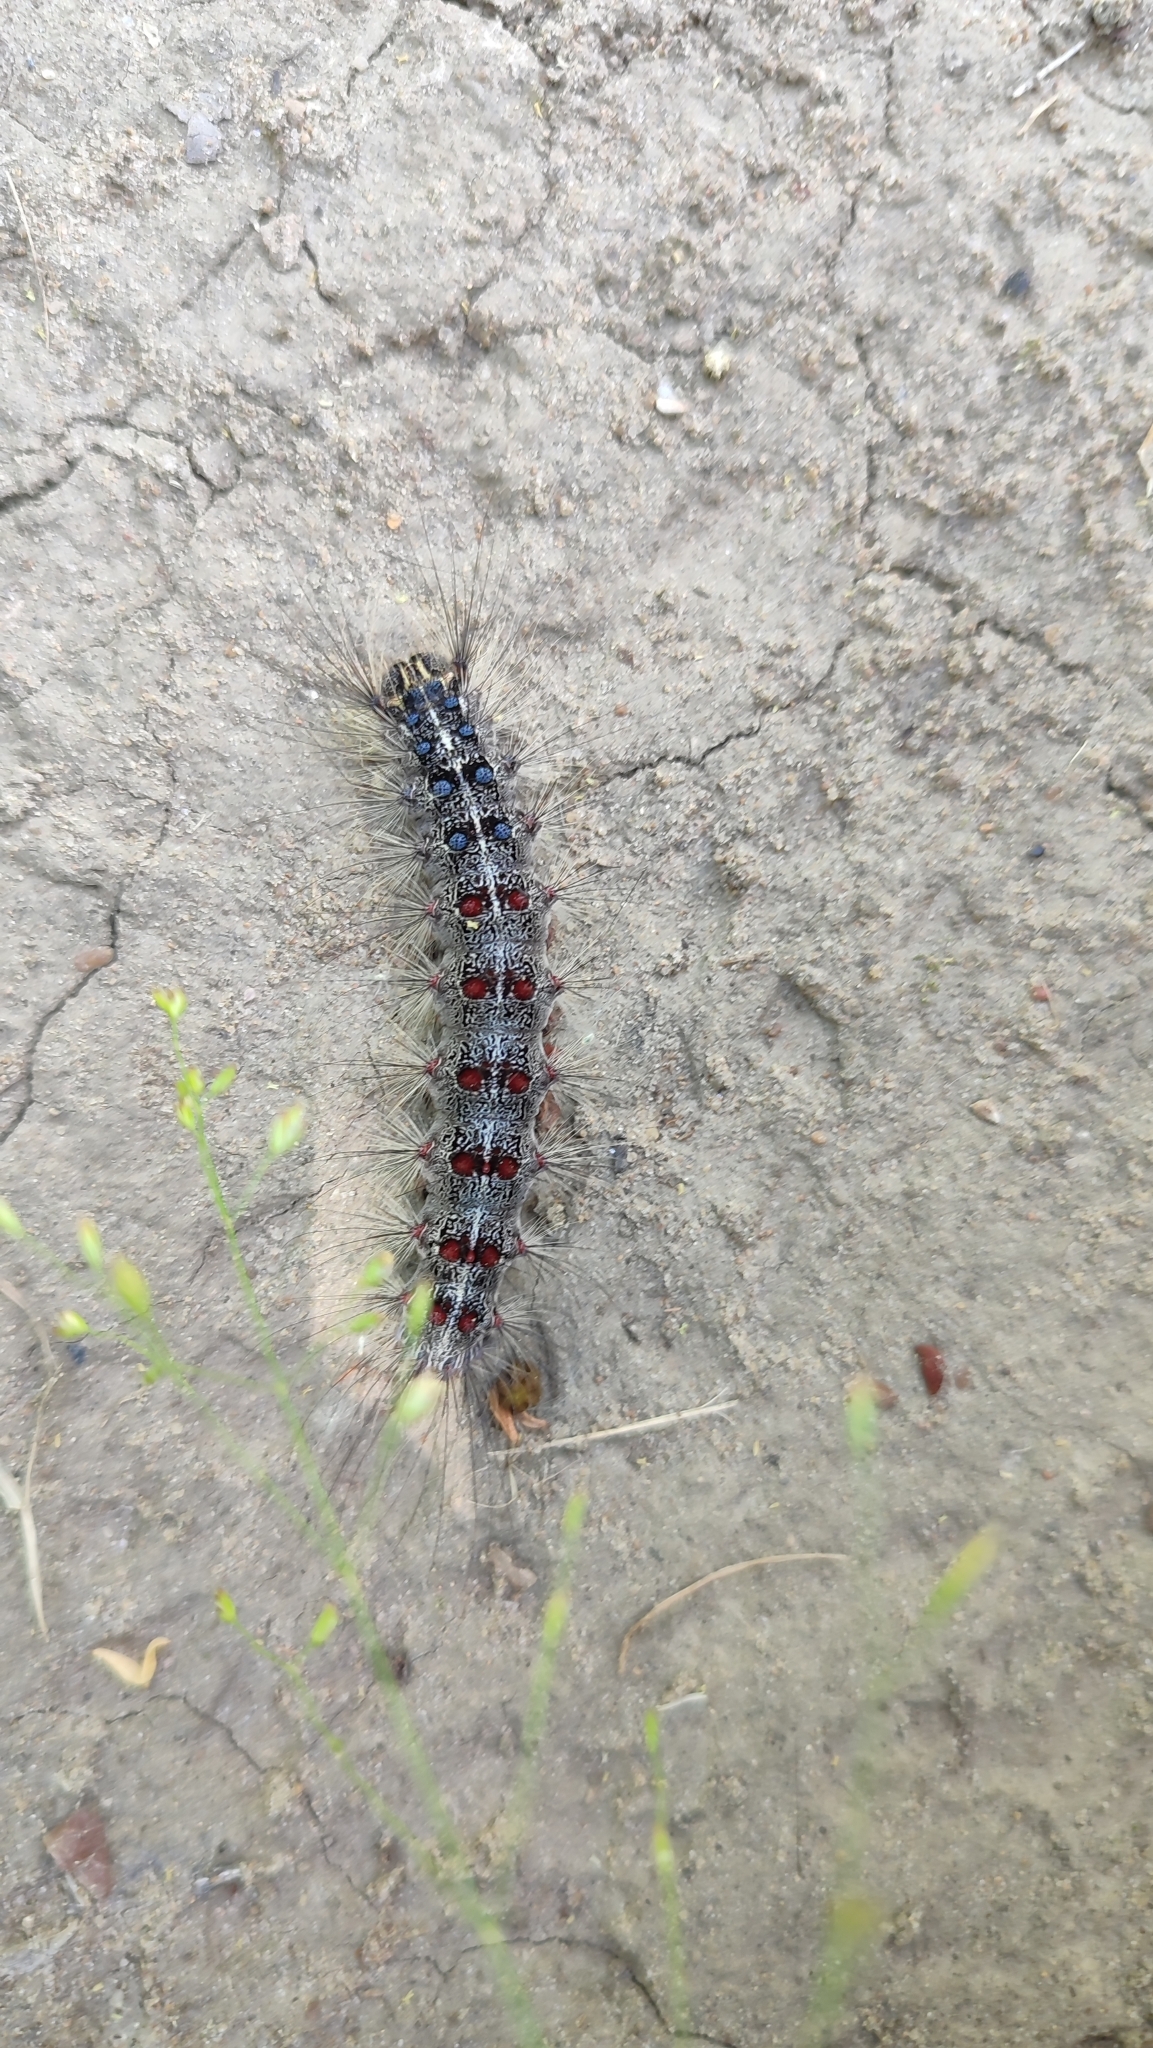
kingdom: Animalia
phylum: Arthropoda
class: Insecta
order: Lepidoptera
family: Erebidae
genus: Lymantria
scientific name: Lymantria dispar
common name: Gypsy moth
